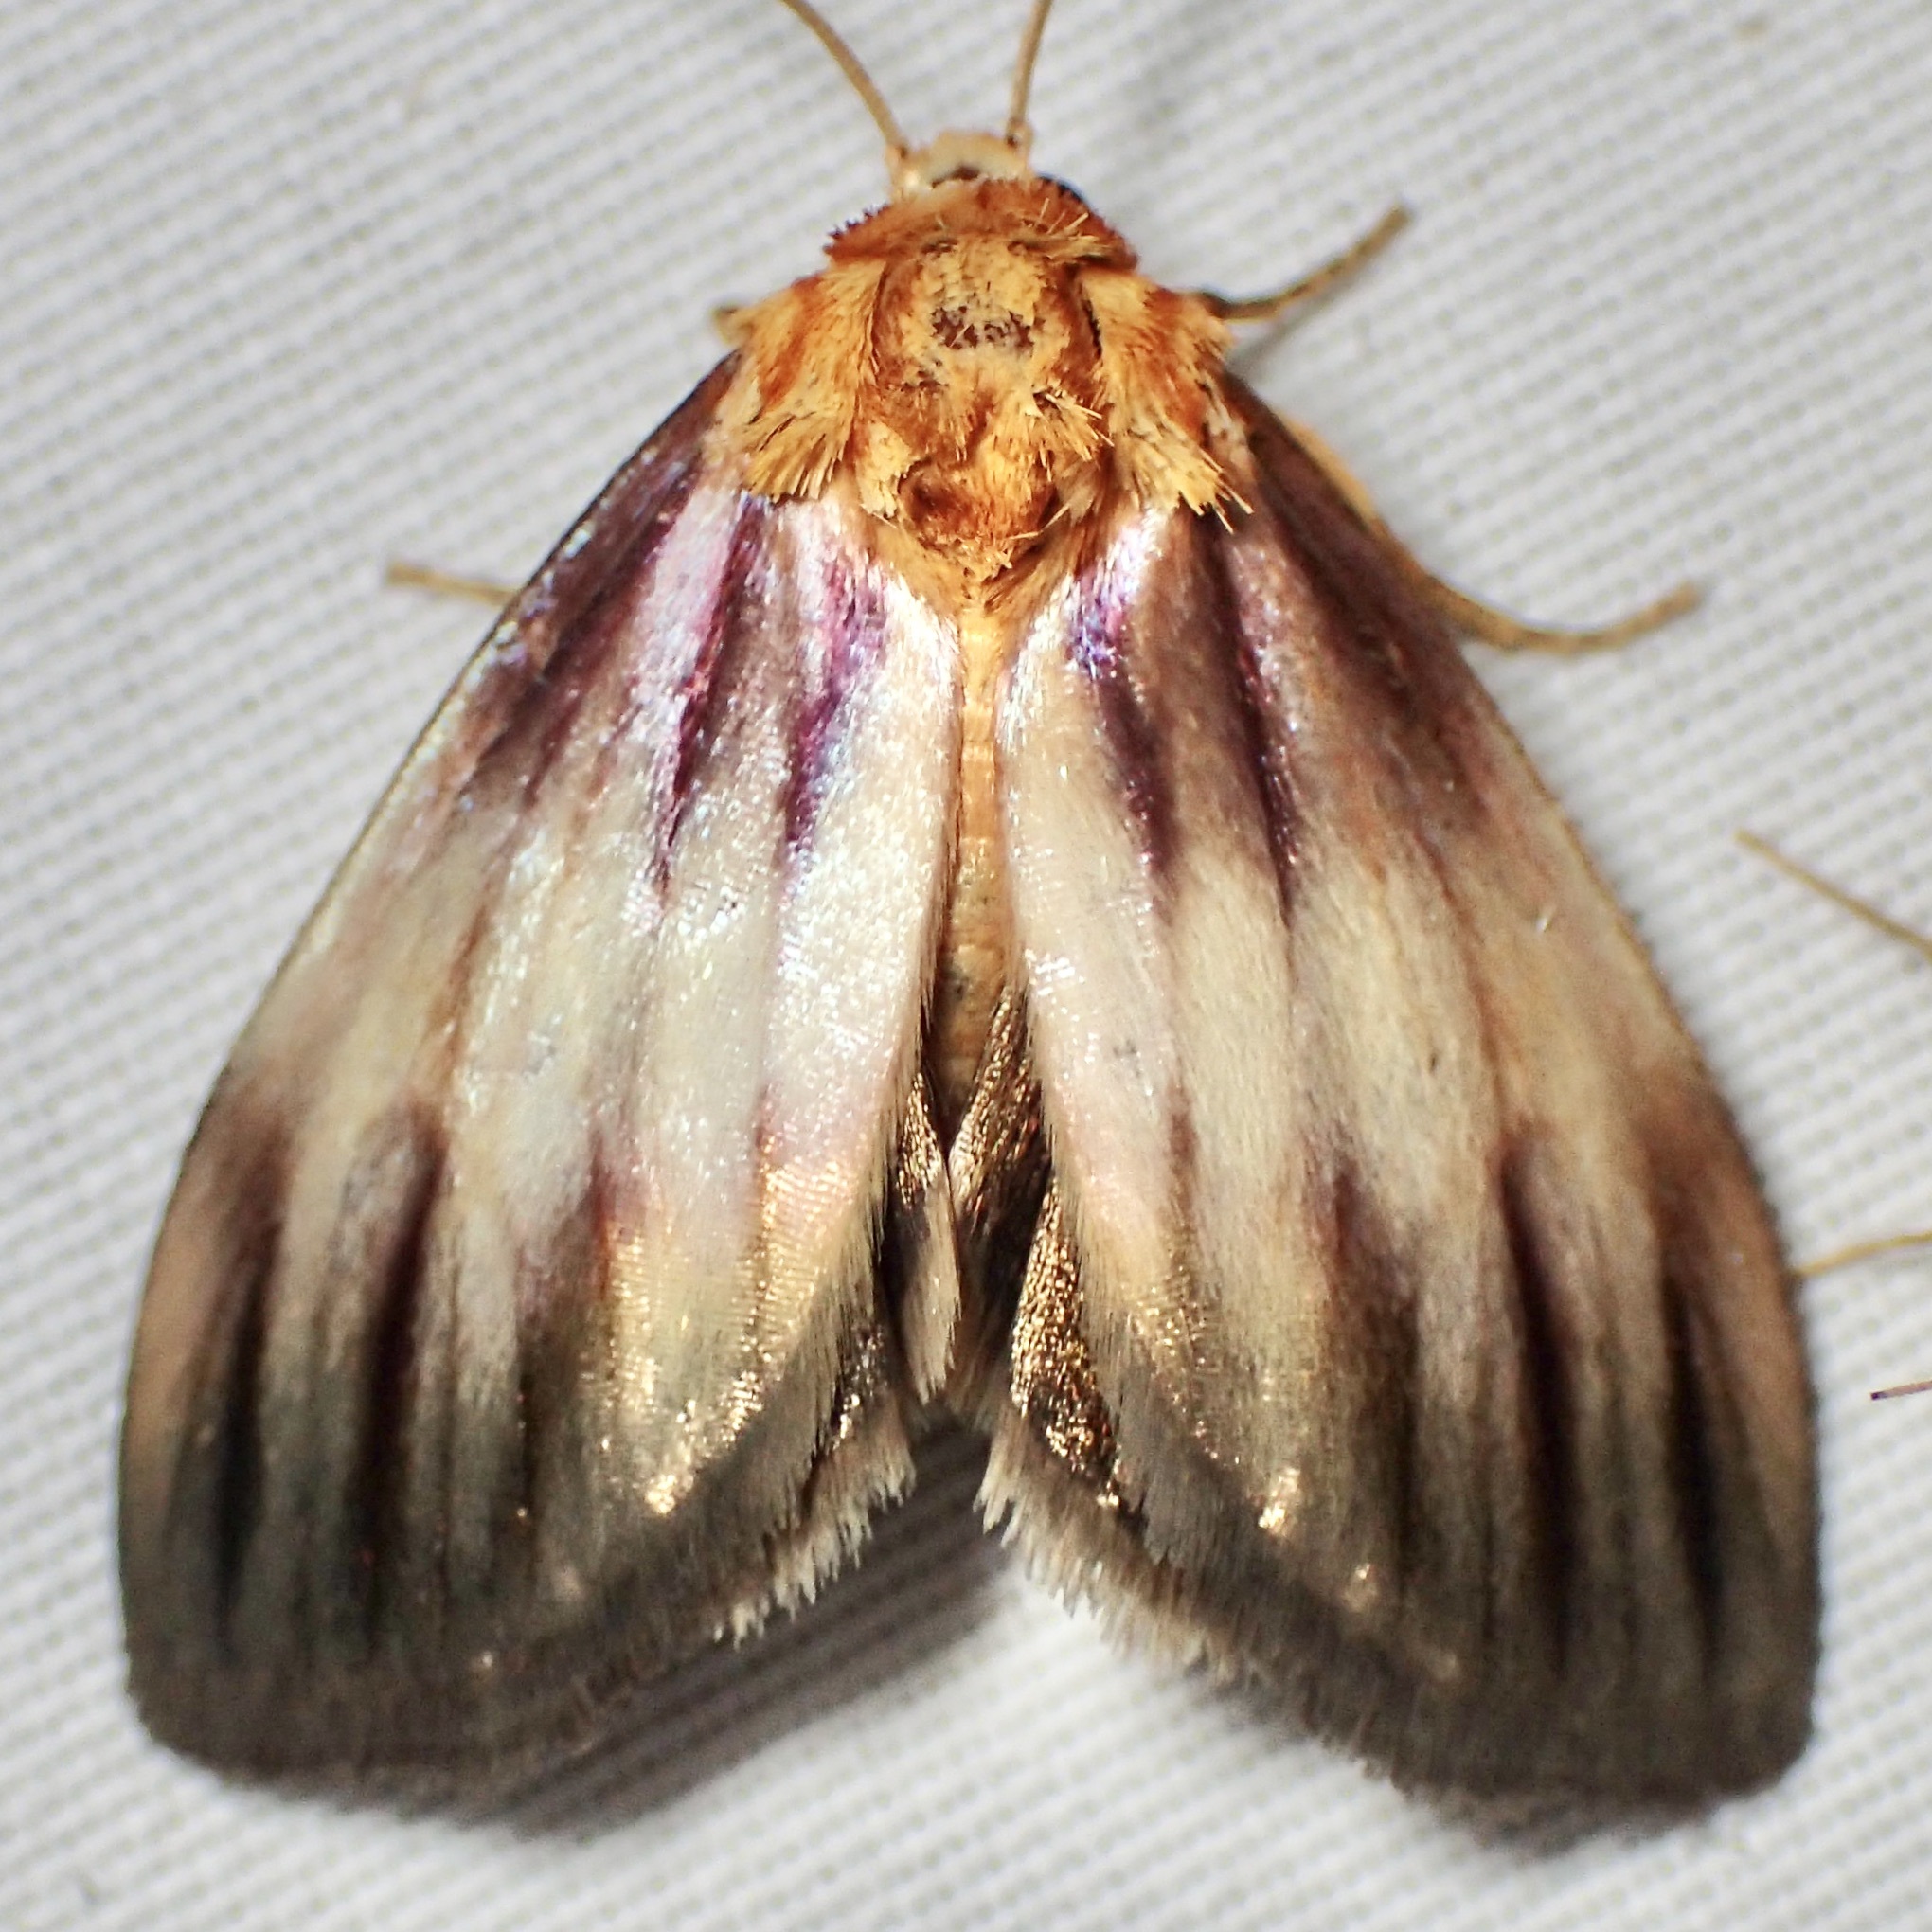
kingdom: Animalia
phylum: Arthropoda
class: Insecta
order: Lepidoptera
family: Noctuidae
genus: Antaplaga
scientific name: Antaplaga plesioglauca
